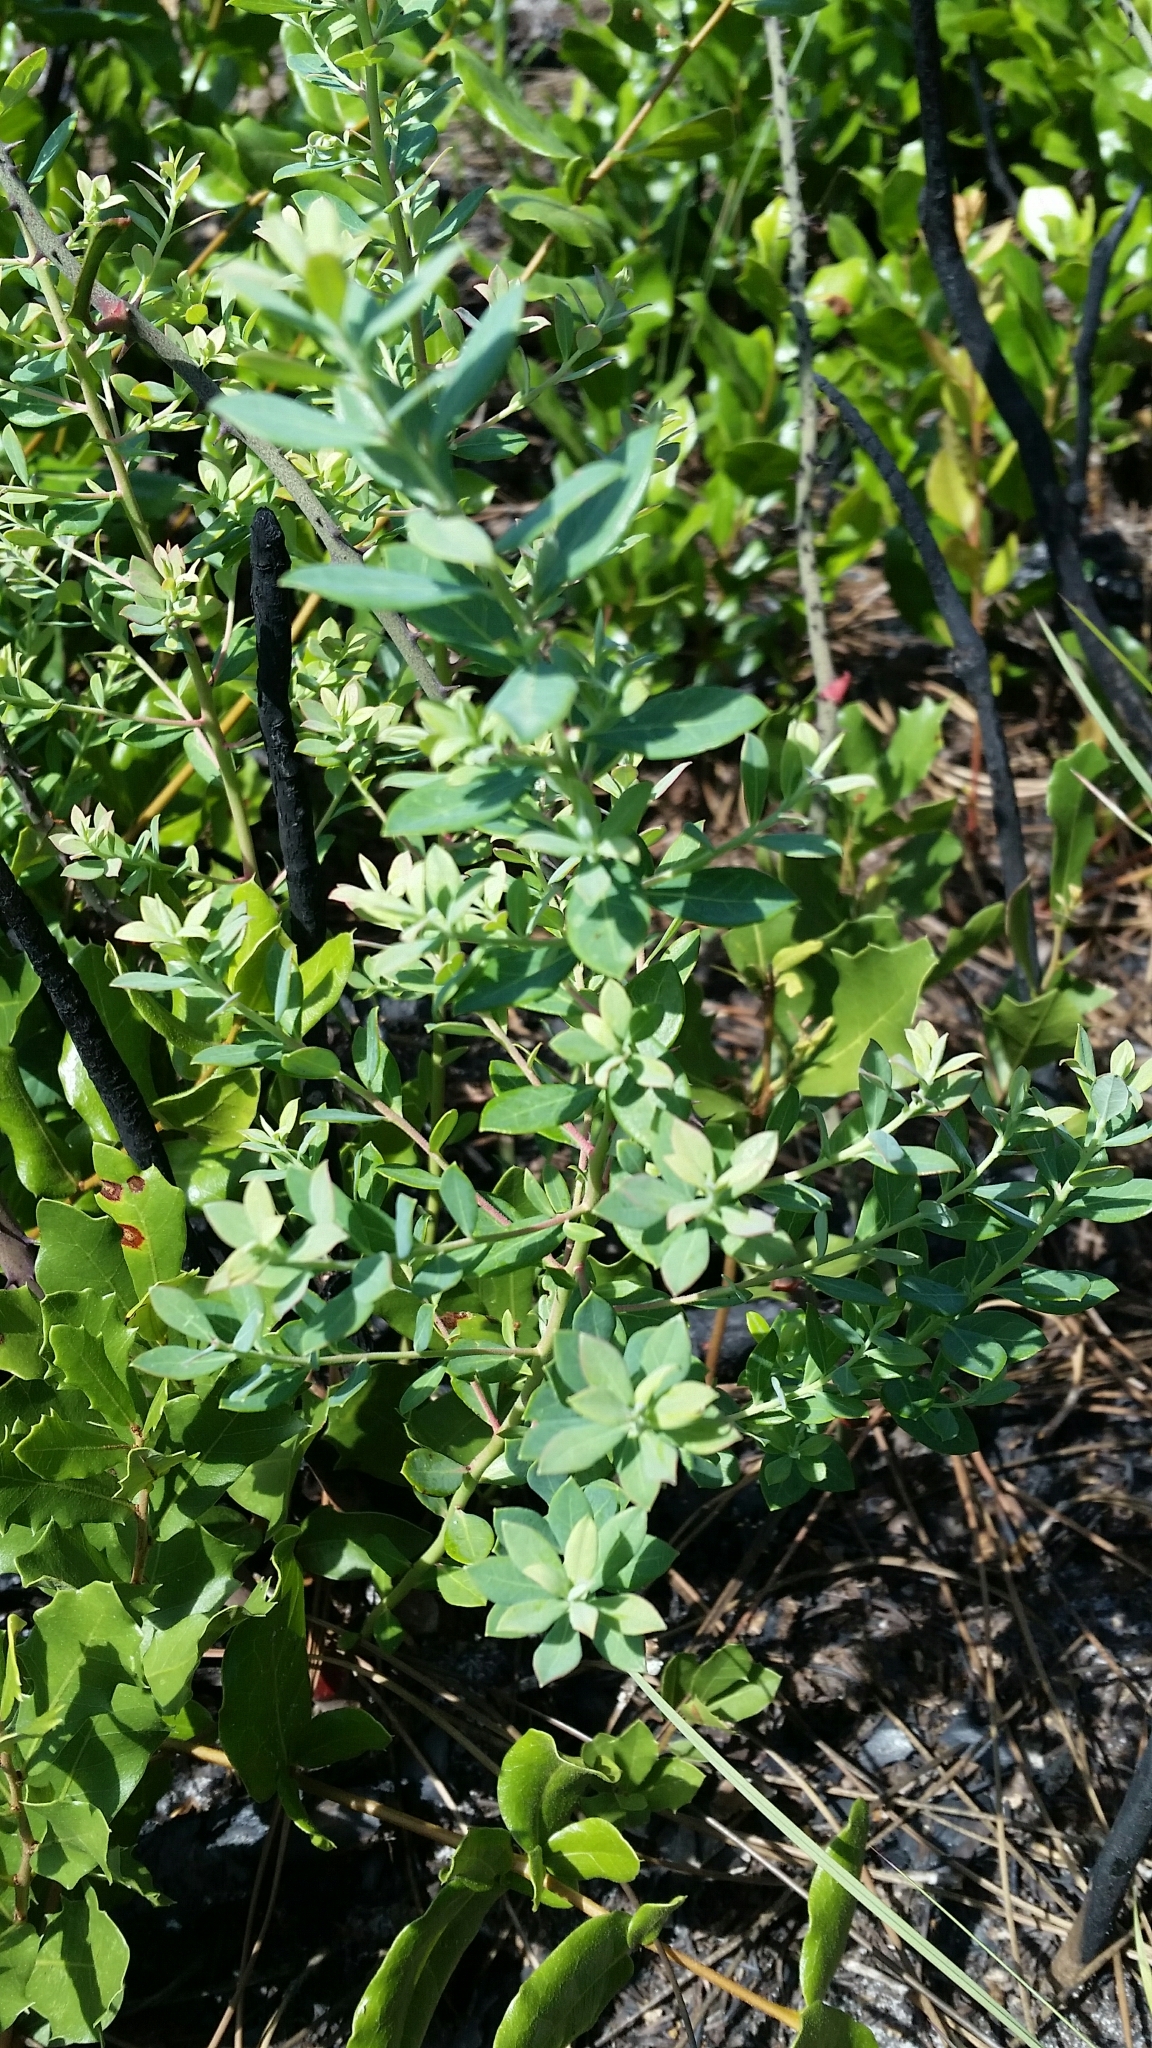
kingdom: Plantae
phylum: Tracheophyta
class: Magnoliopsida
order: Ericales
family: Ericaceae
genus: Vaccinium
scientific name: Vaccinium darrowii
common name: Darrow's blueberry
